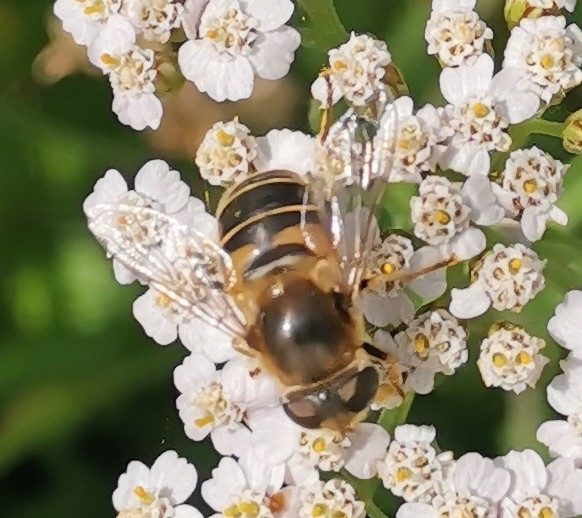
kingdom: Animalia
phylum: Arthropoda
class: Insecta
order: Diptera
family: Syrphidae
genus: Eristalis
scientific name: Eristalis nemorum
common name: Orange-spined drone fly
